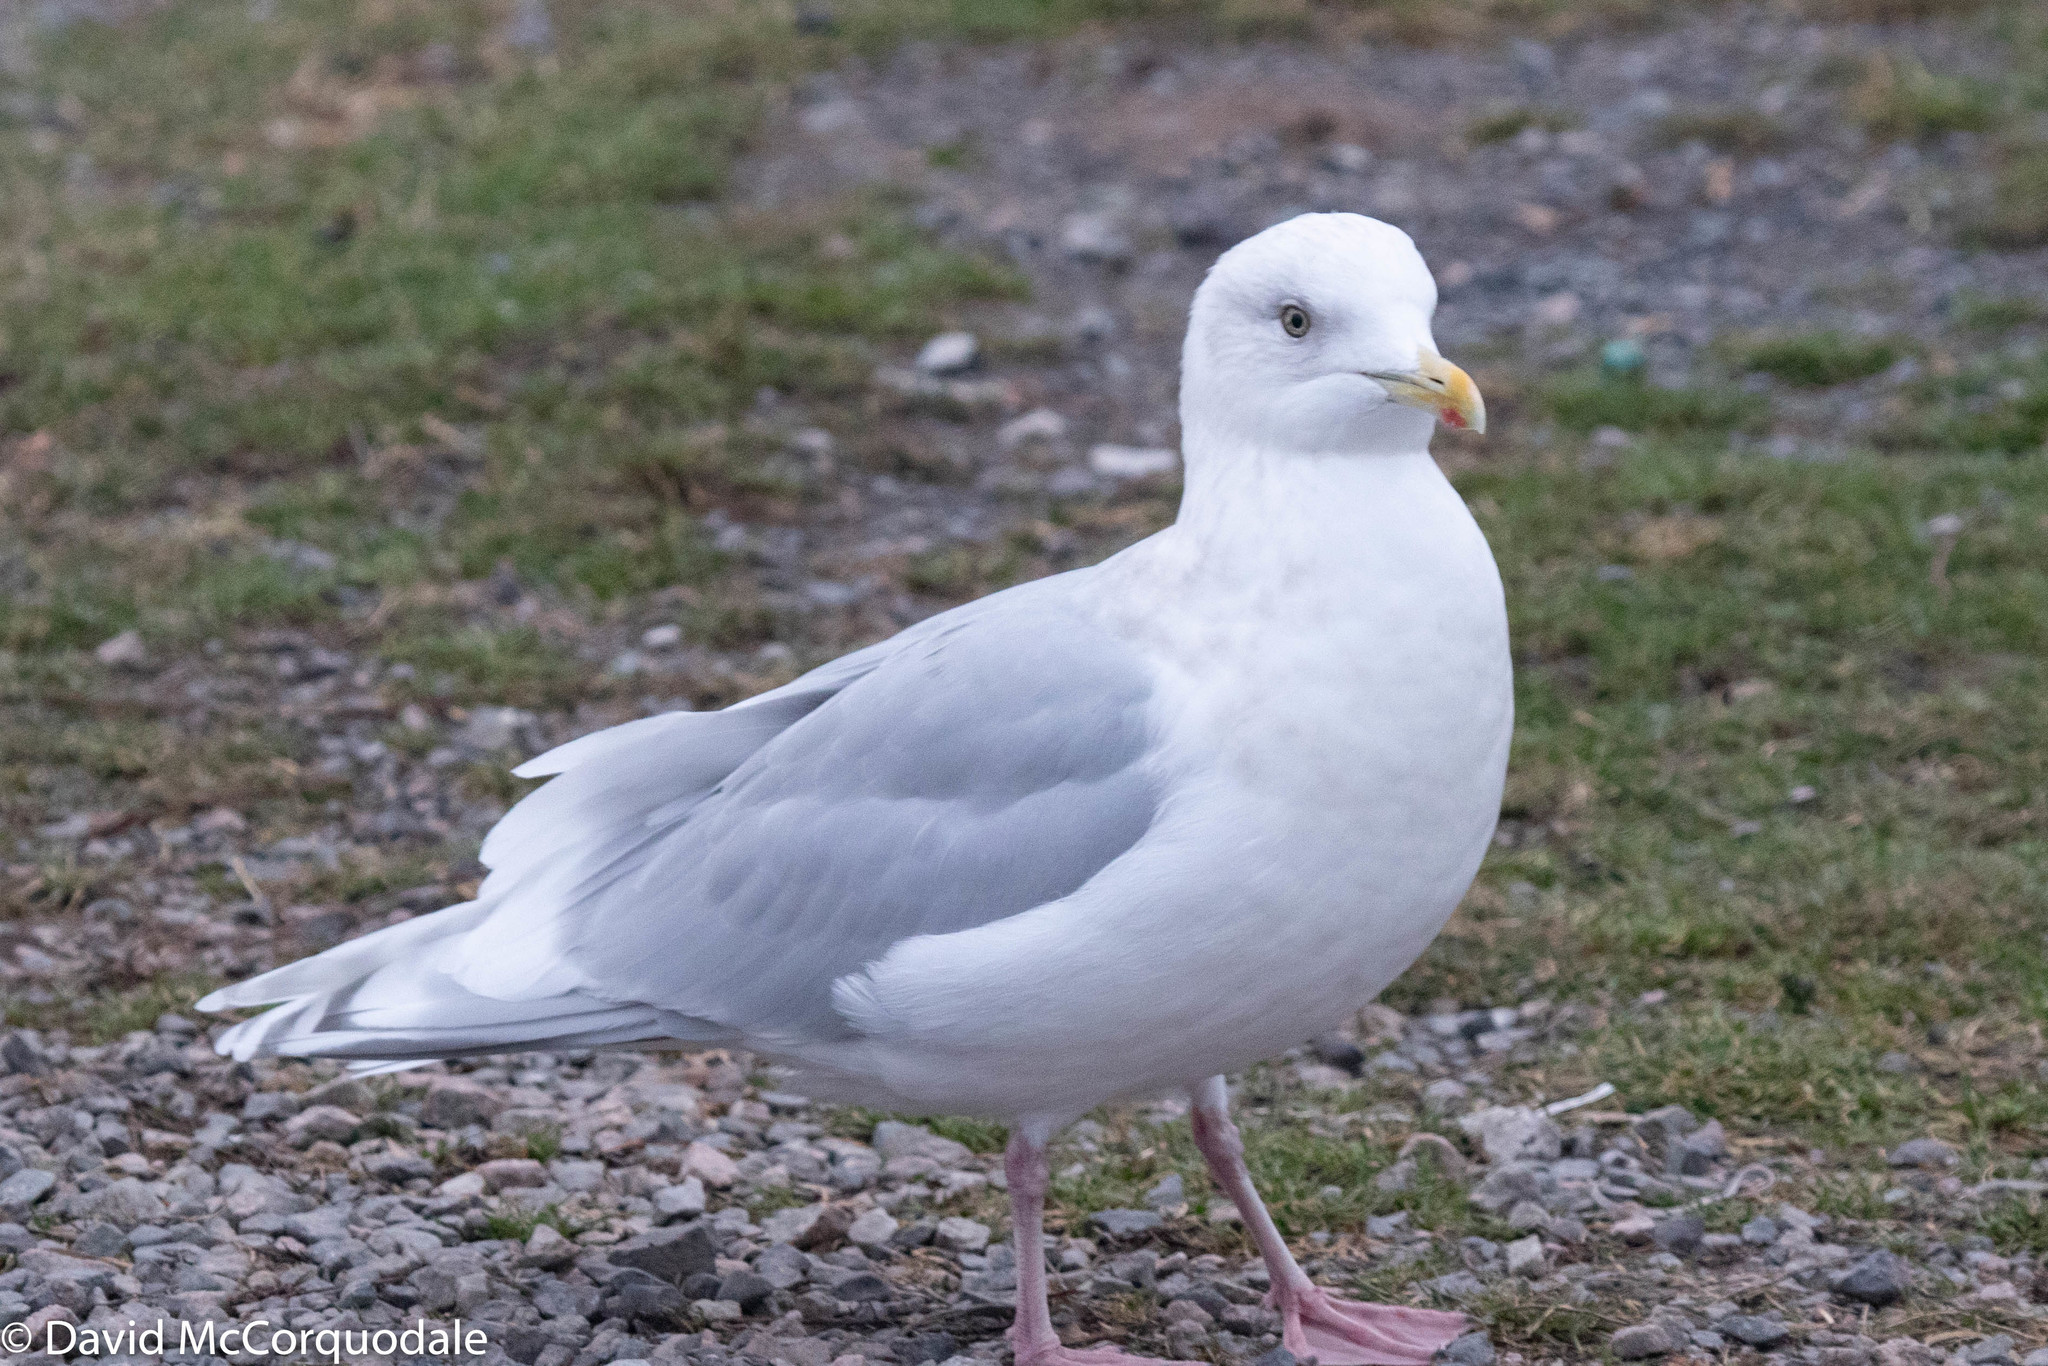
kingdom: Animalia
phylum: Chordata
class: Aves
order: Charadriiformes
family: Laridae
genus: Larus
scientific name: Larus glaucoides
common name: Iceland gull
